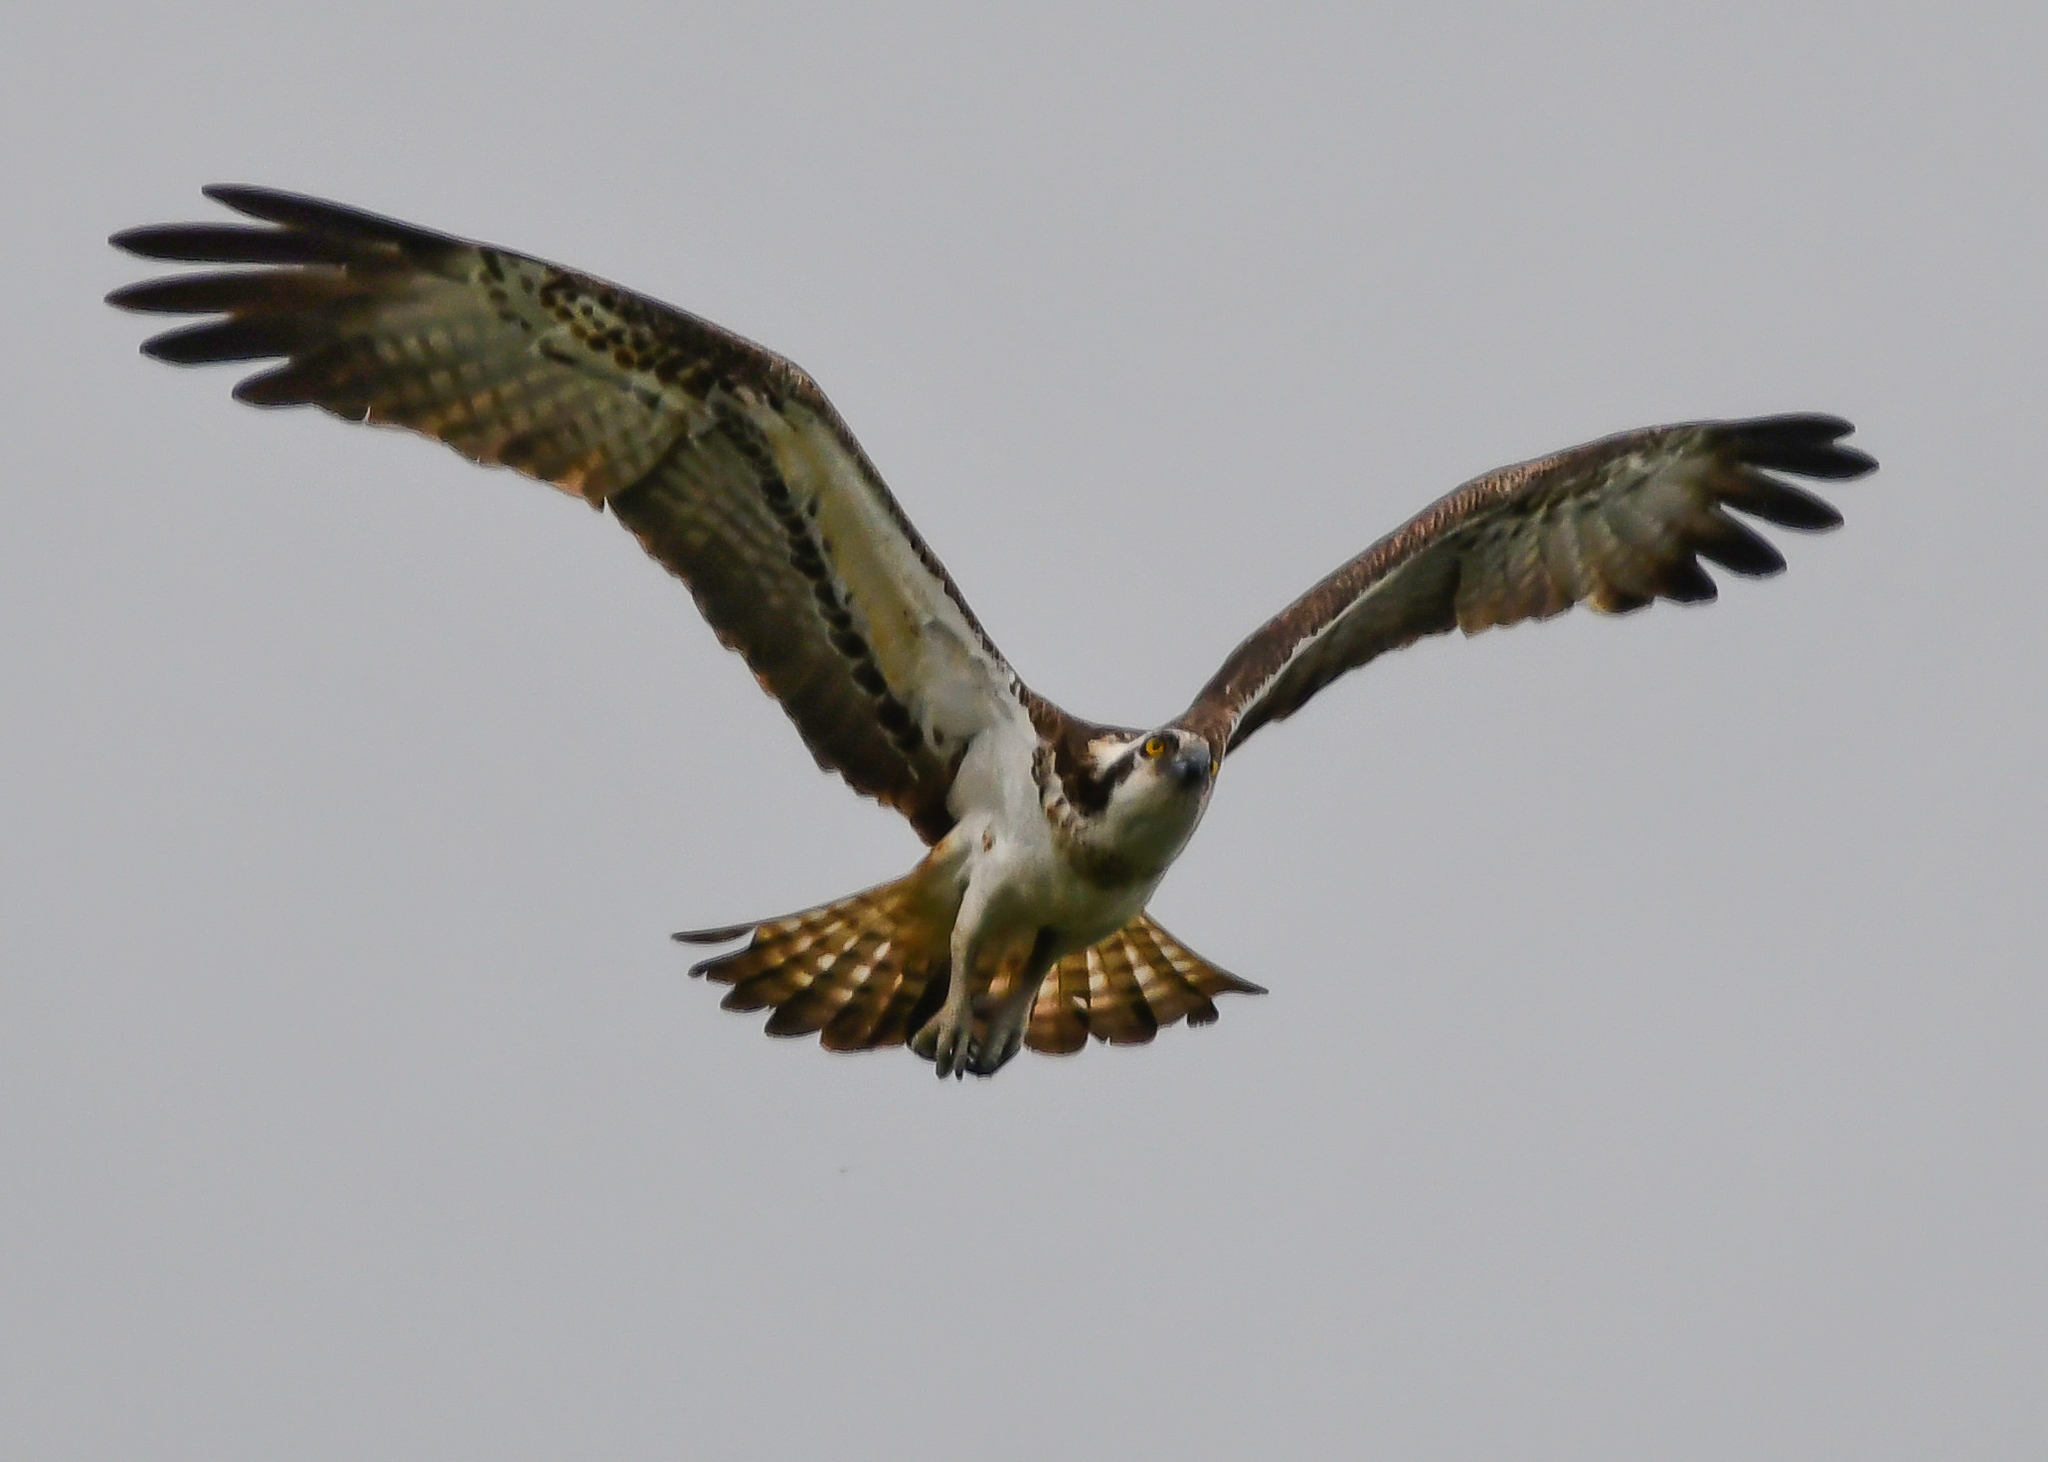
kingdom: Animalia
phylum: Chordata
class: Aves
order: Accipitriformes
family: Pandionidae
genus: Pandion
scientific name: Pandion haliaetus
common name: Osprey
